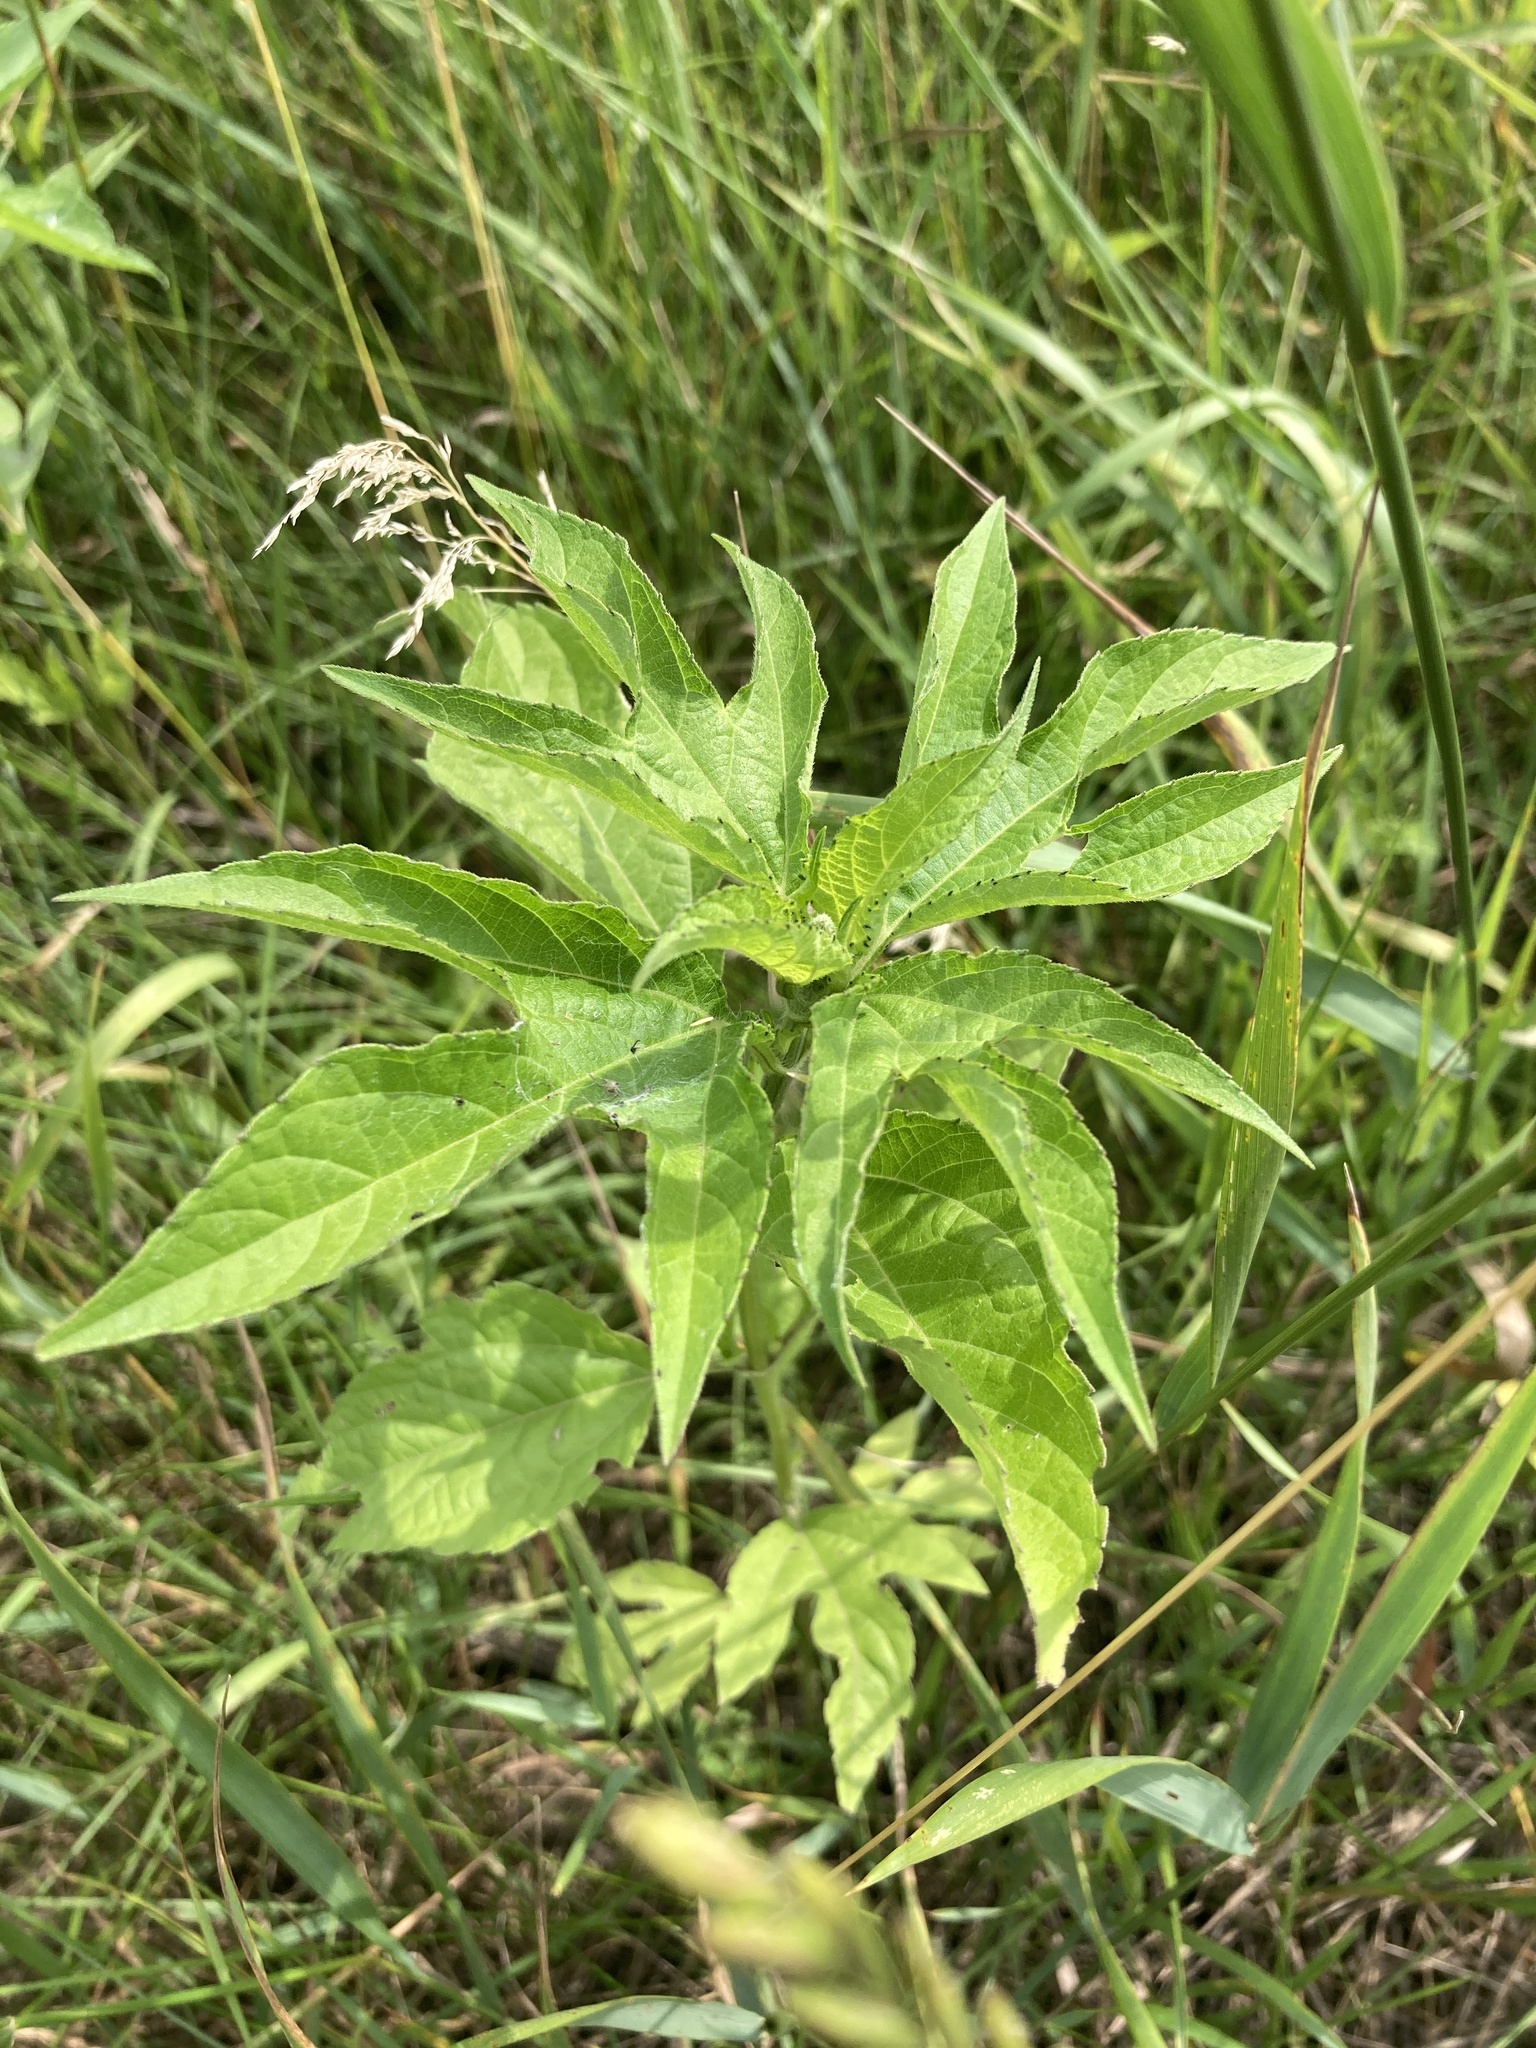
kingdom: Plantae
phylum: Tracheophyta
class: Magnoliopsida
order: Asterales
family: Asteraceae
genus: Ambrosia
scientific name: Ambrosia trifida
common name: Giant ragweed
